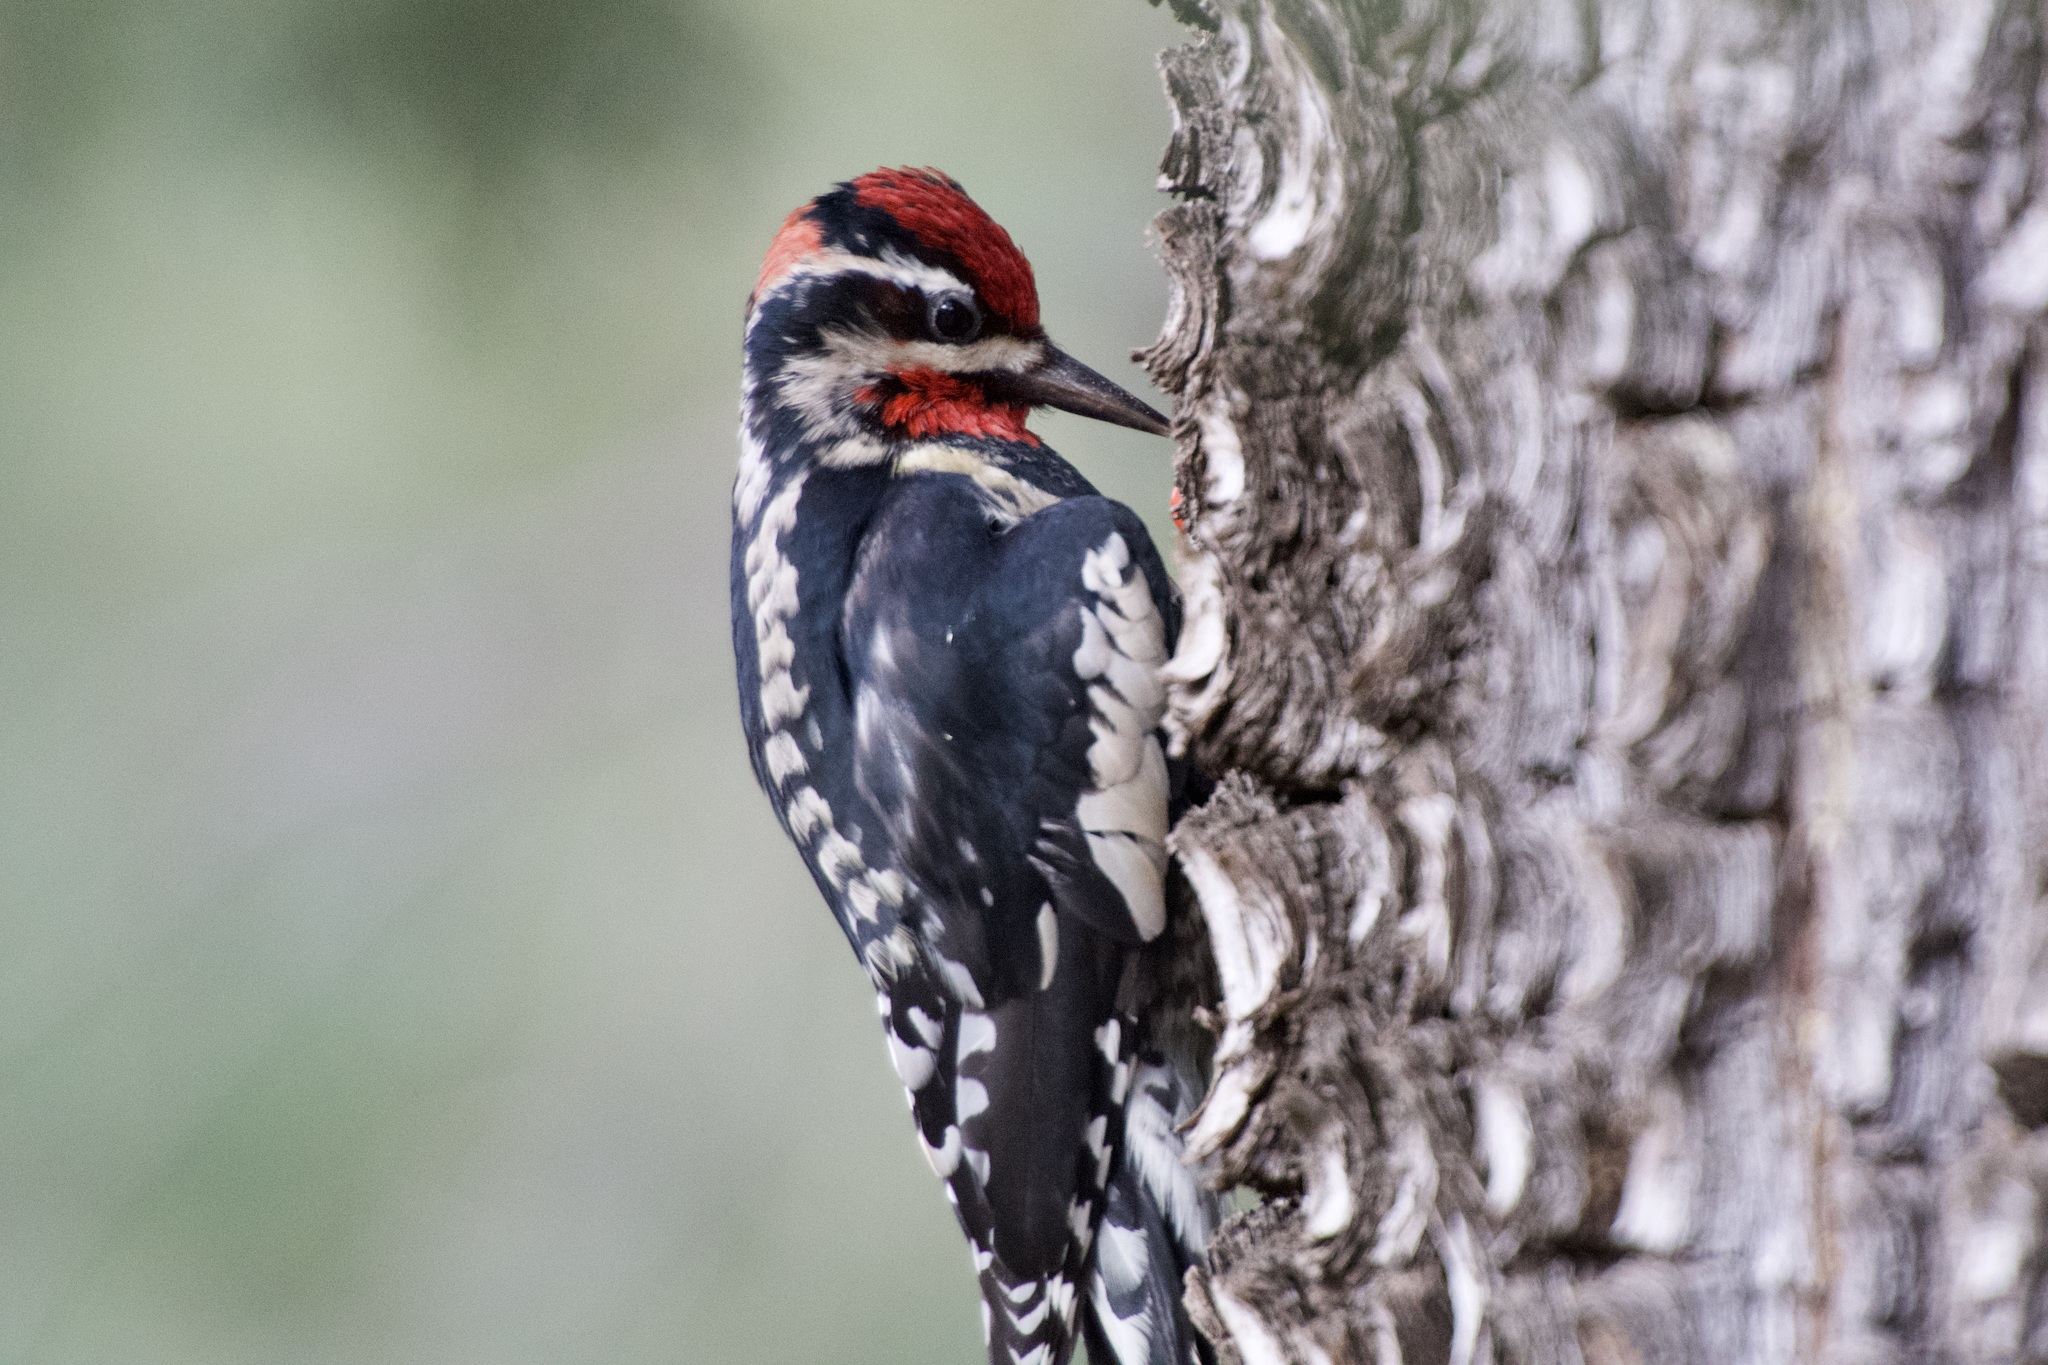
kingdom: Animalia
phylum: Chordata
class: Aves
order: Piciformes
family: Picidae
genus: Sphyrapicus
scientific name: Sphyrapicus nuchalis
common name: Red-naped sapsucker
